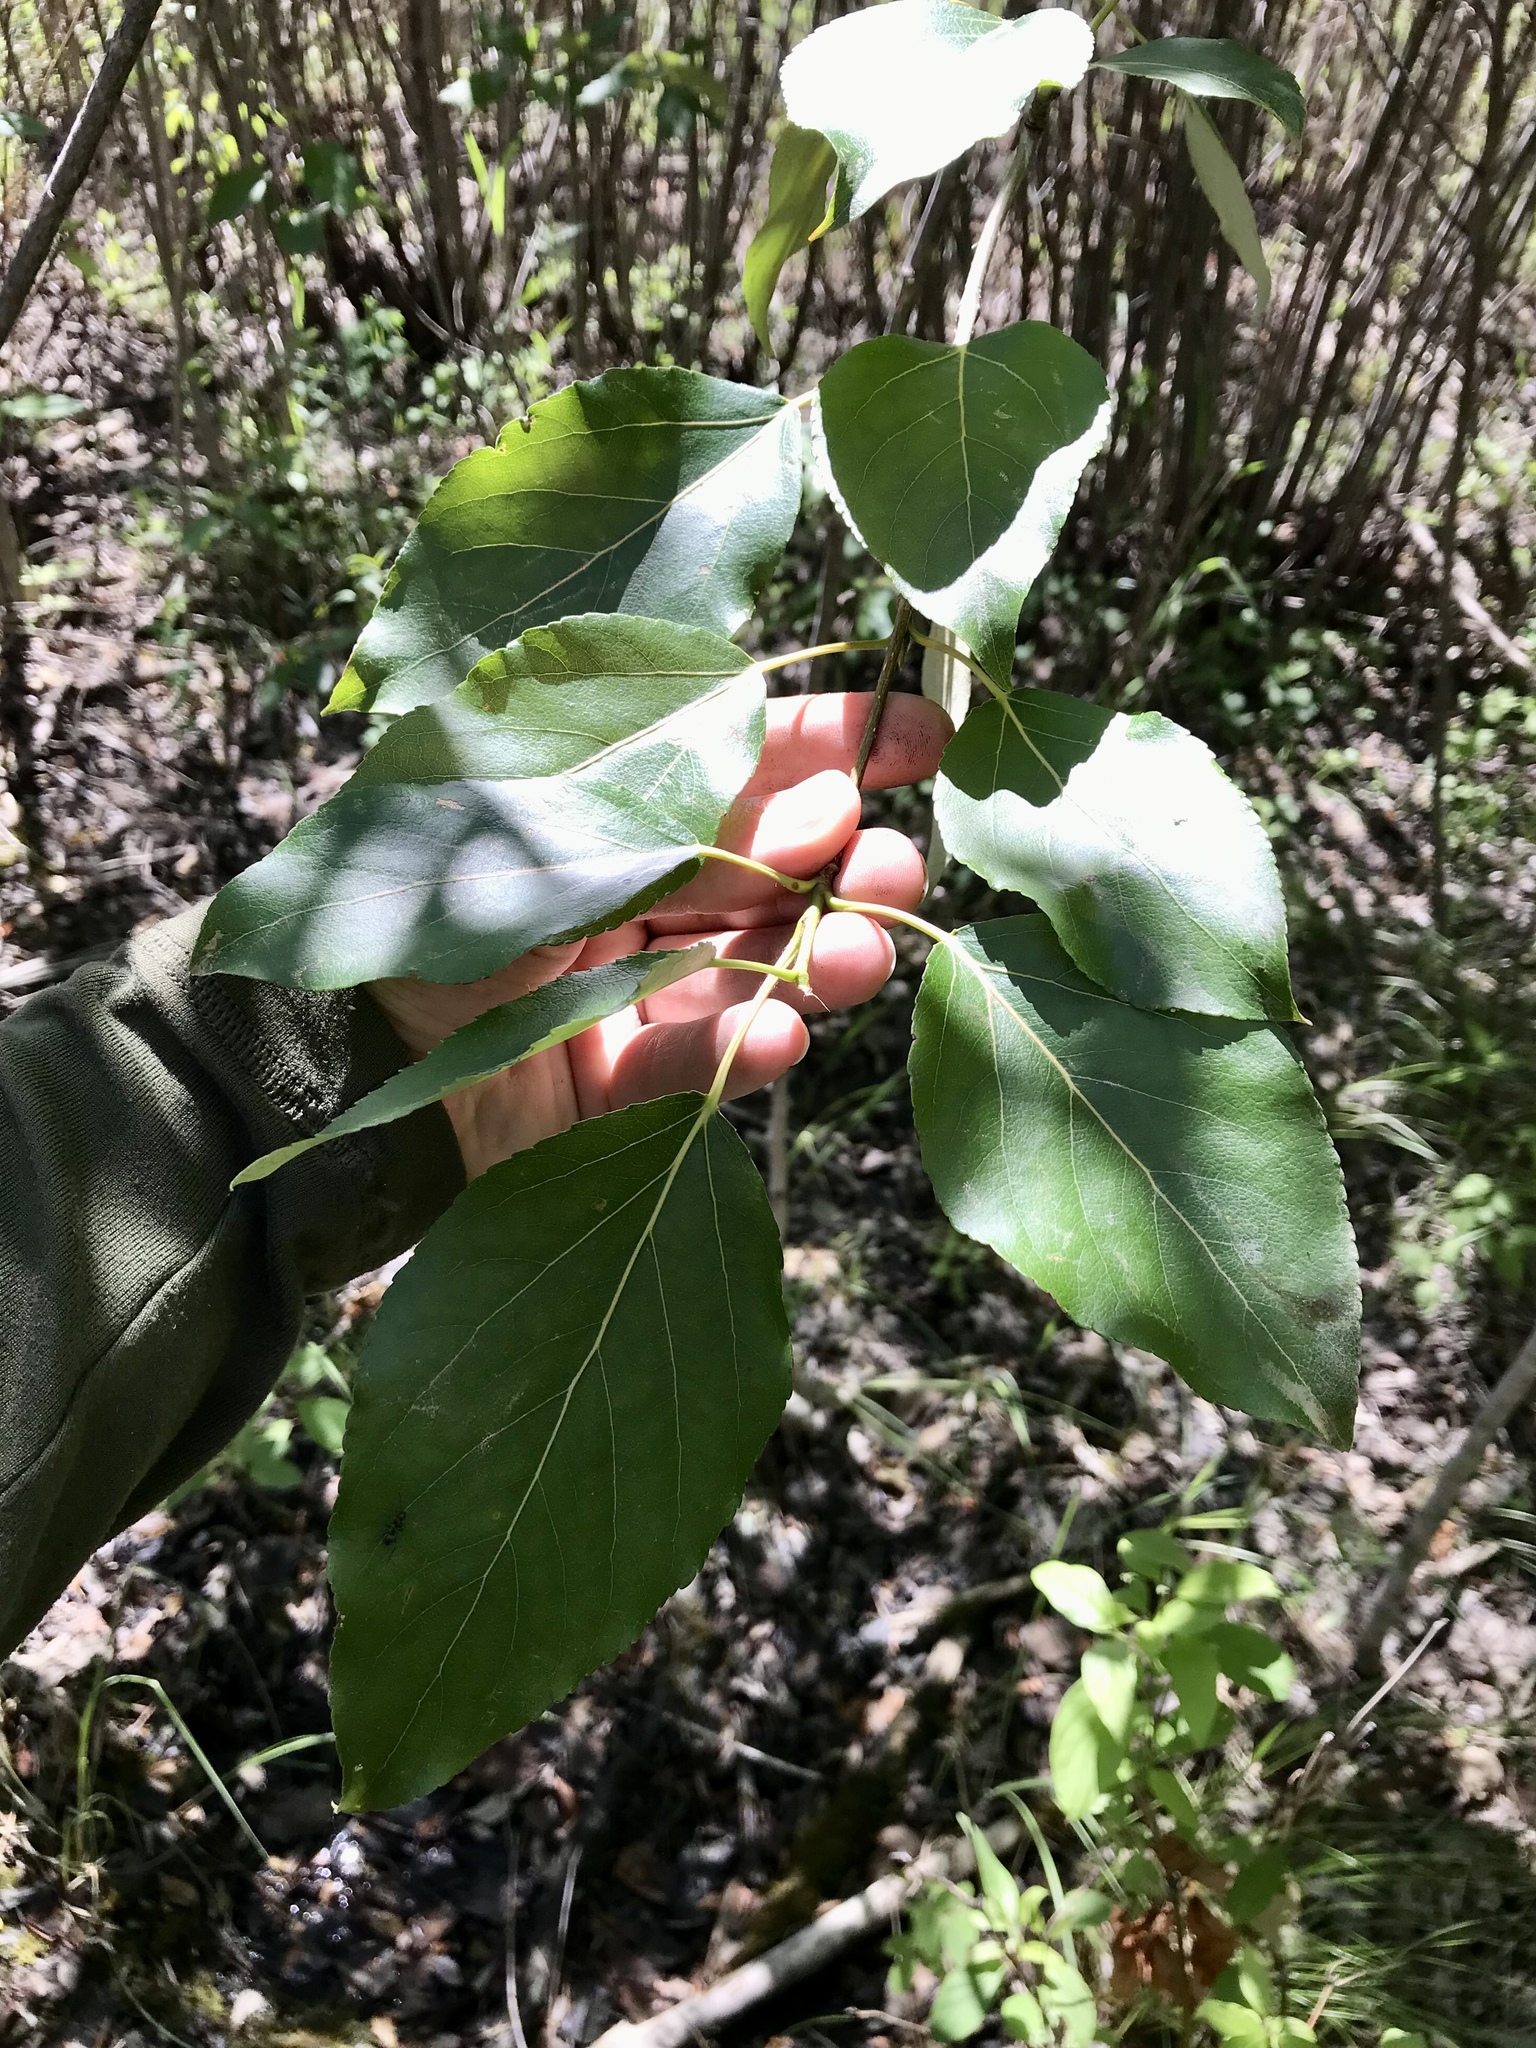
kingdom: Plantae
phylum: Tracheophyta
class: Magnoliopsida
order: Malpighiales
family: Salicaceae
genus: Populus
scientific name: Populus balsamifera
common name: Balsam poplar
